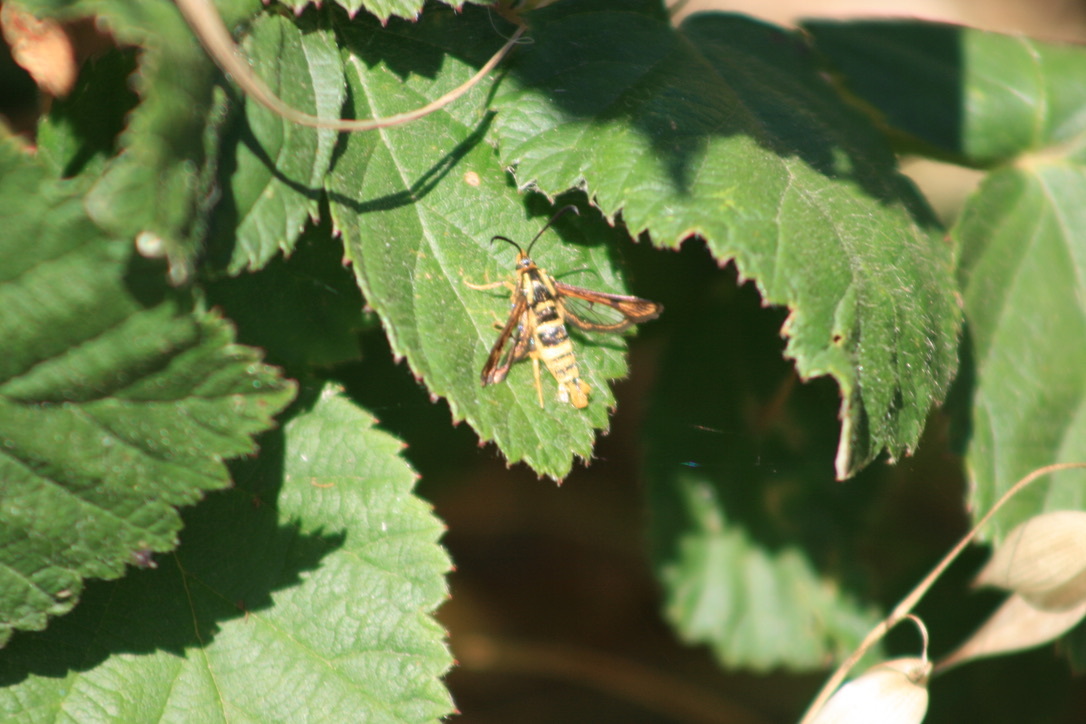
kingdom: Animalia
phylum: Arthropoda
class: Insecta
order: Lepidoptera
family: Sesiidae
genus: Synanthedon
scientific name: Synanthedon bibionipennis
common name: Strawberry crown moth
